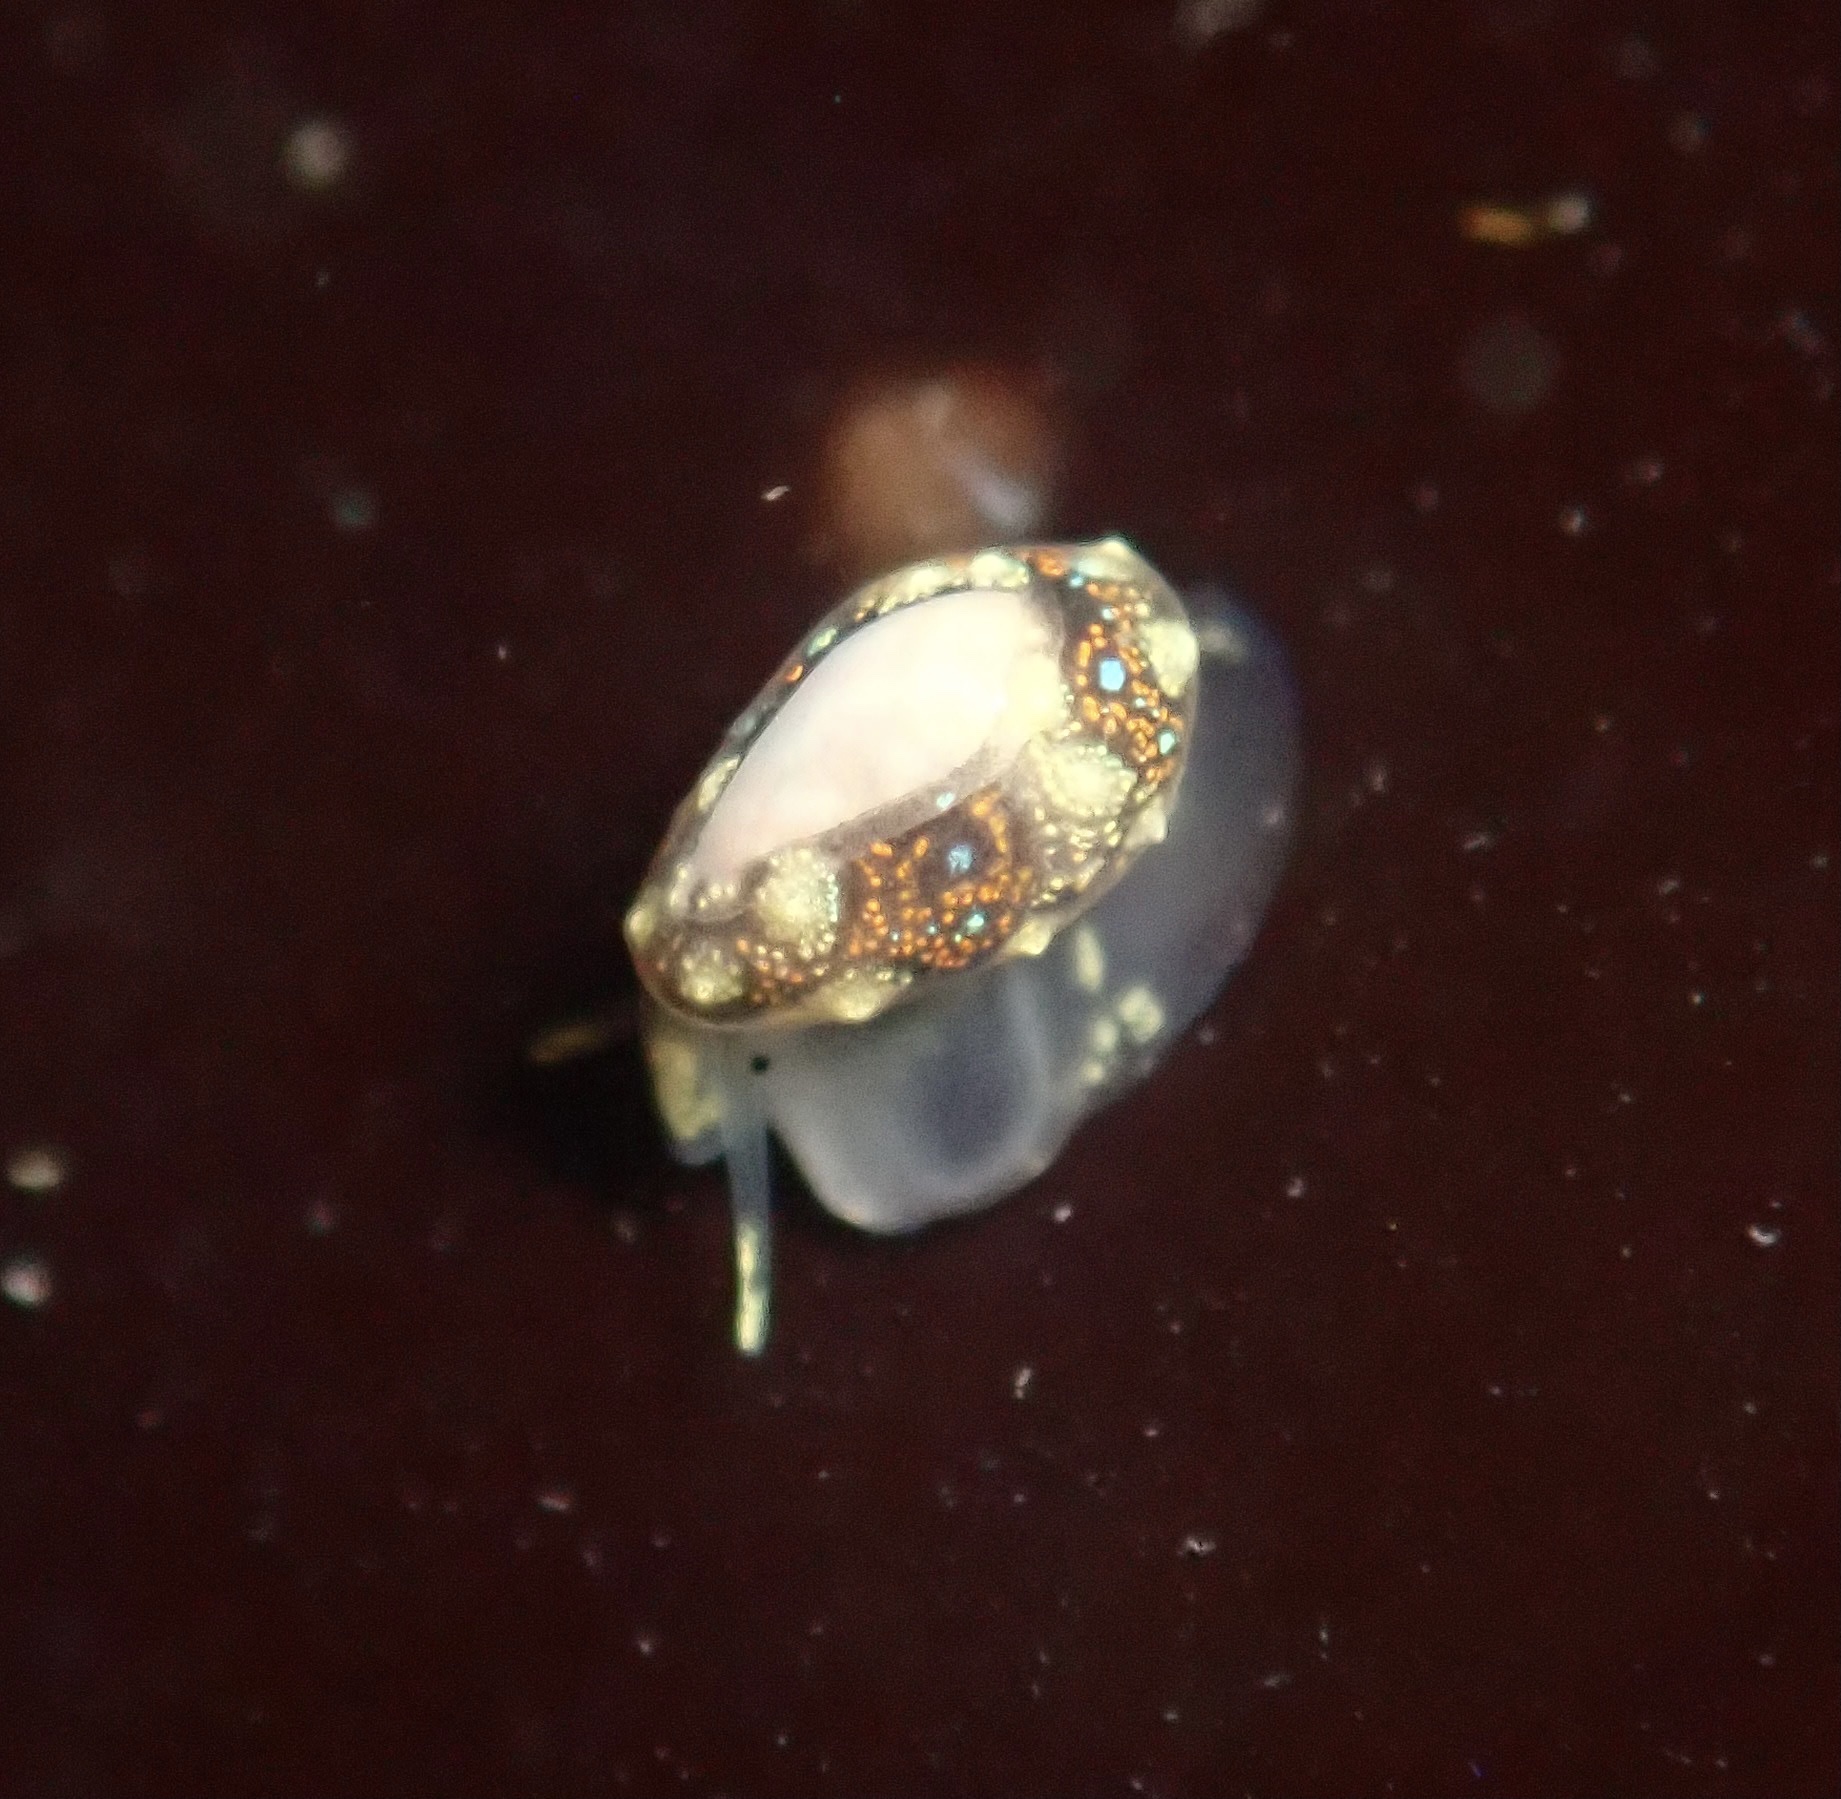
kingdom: Animalia
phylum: Mollusca
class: Gastropoda
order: Neogastropoda
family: Granulinidae
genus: Granulina
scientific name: Granulina margaritula
